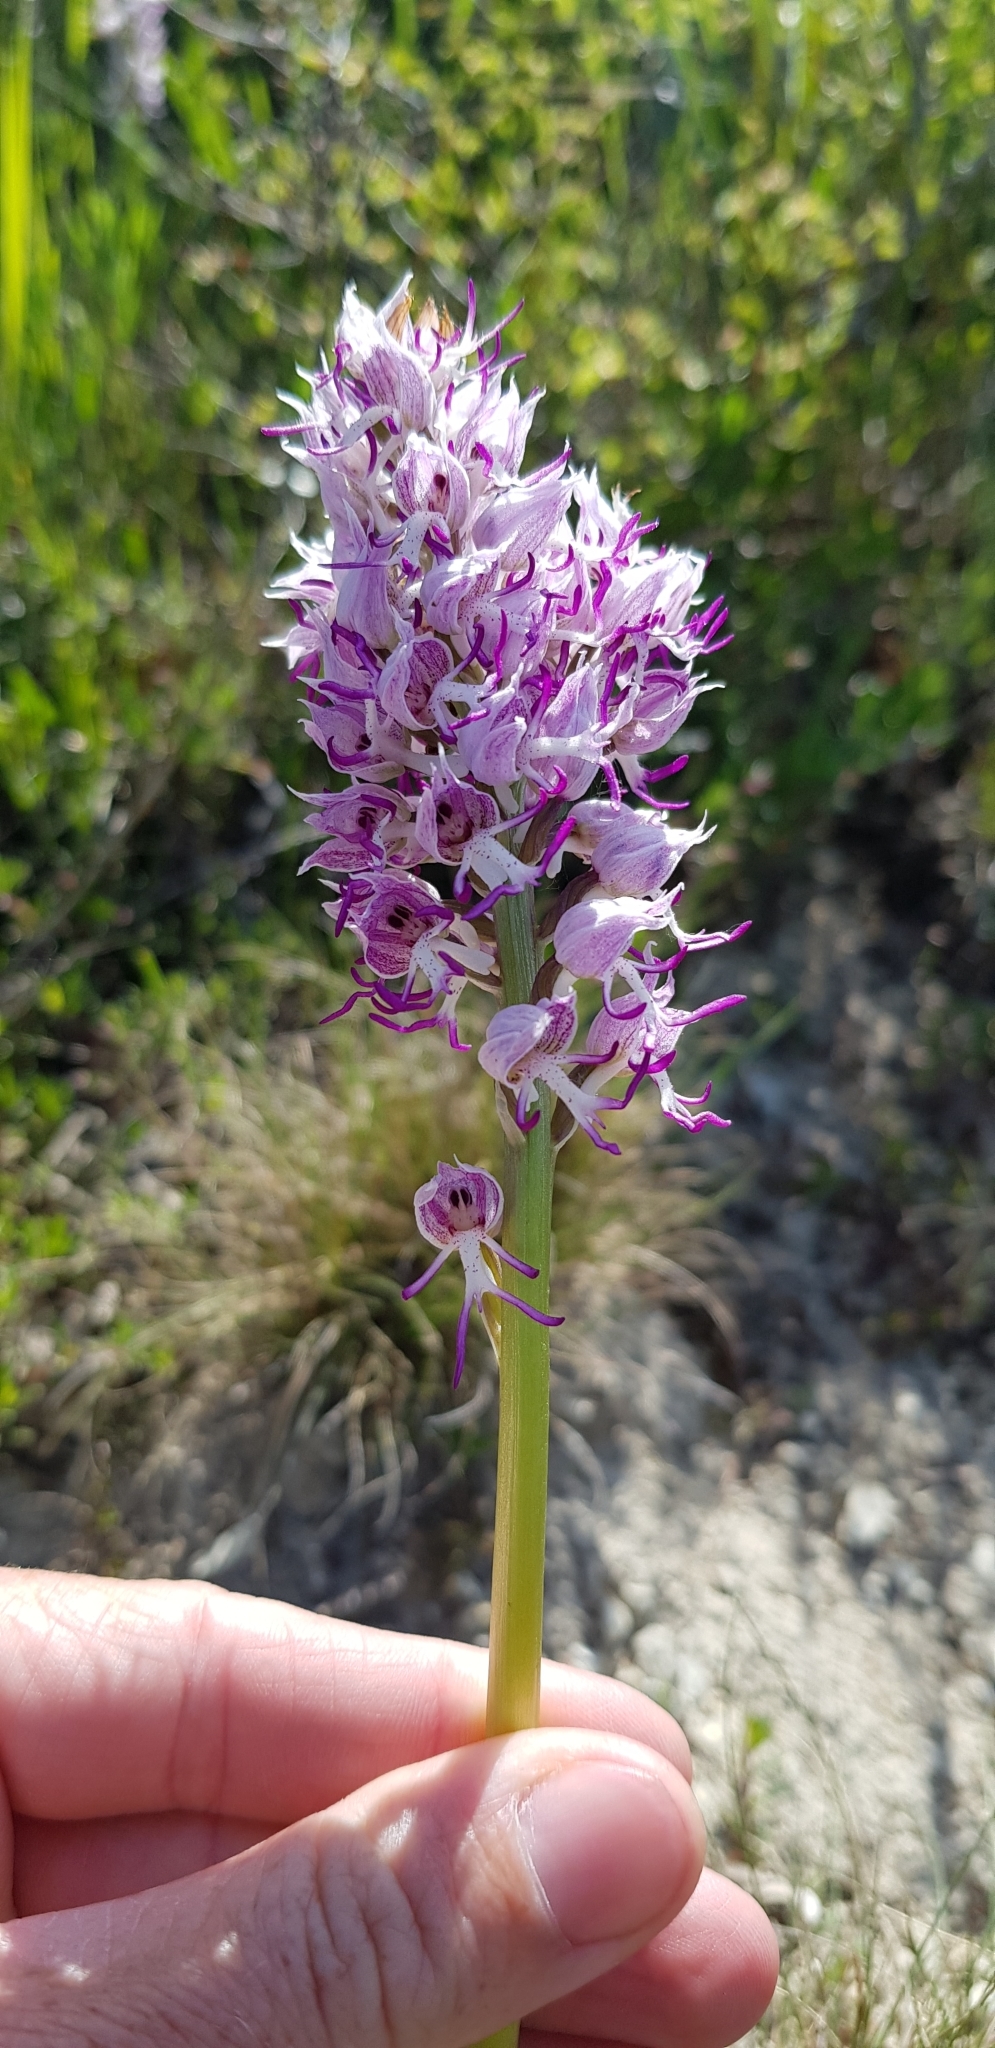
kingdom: Plantae
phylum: Tracheophyta
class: Liliopsida
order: Asparagales
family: Orchidaceae
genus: Orchis
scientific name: Orchis simia
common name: Monkey orchid
